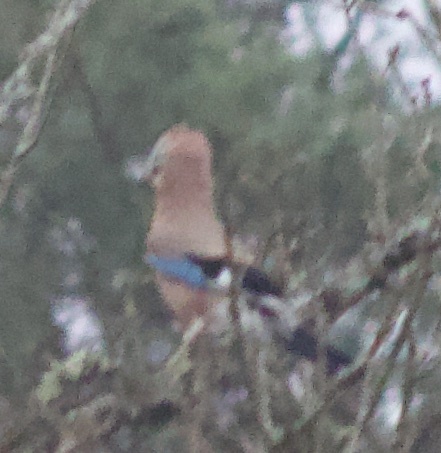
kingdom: Animalia
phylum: Chordata
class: Aves
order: Passeriformes
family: Corvidae
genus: Garrulus
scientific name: Garrulus glandarius
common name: Eurasian jay
